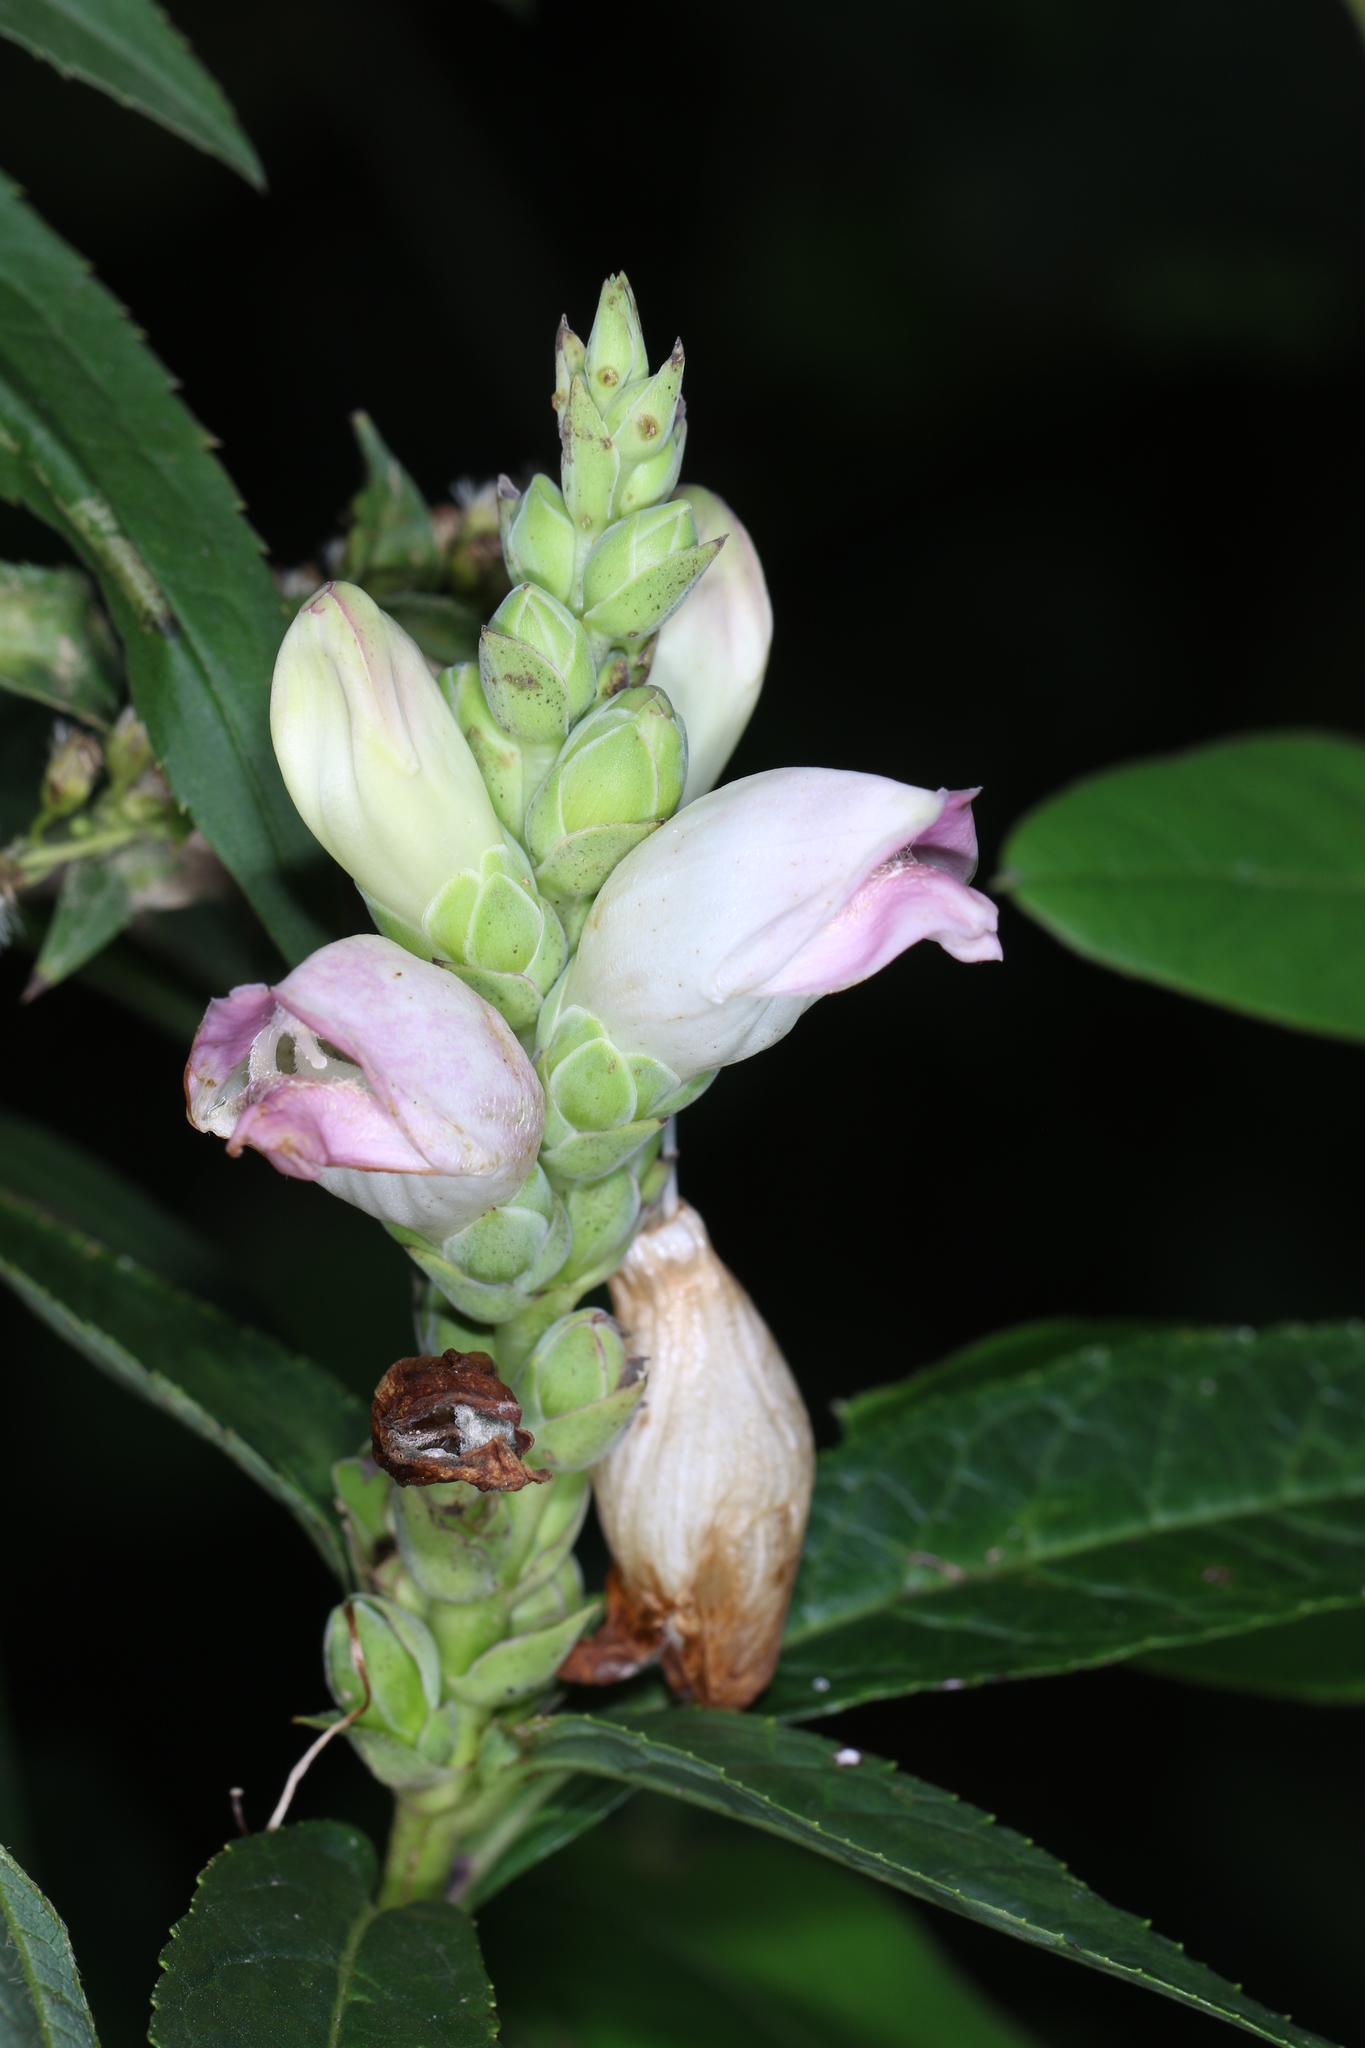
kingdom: Plantae
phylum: Tracheophyta
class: Magnoliopsida
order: Lamiales
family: Plantaginaceae
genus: Chelone
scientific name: Chelone glabra
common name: Snakehead
